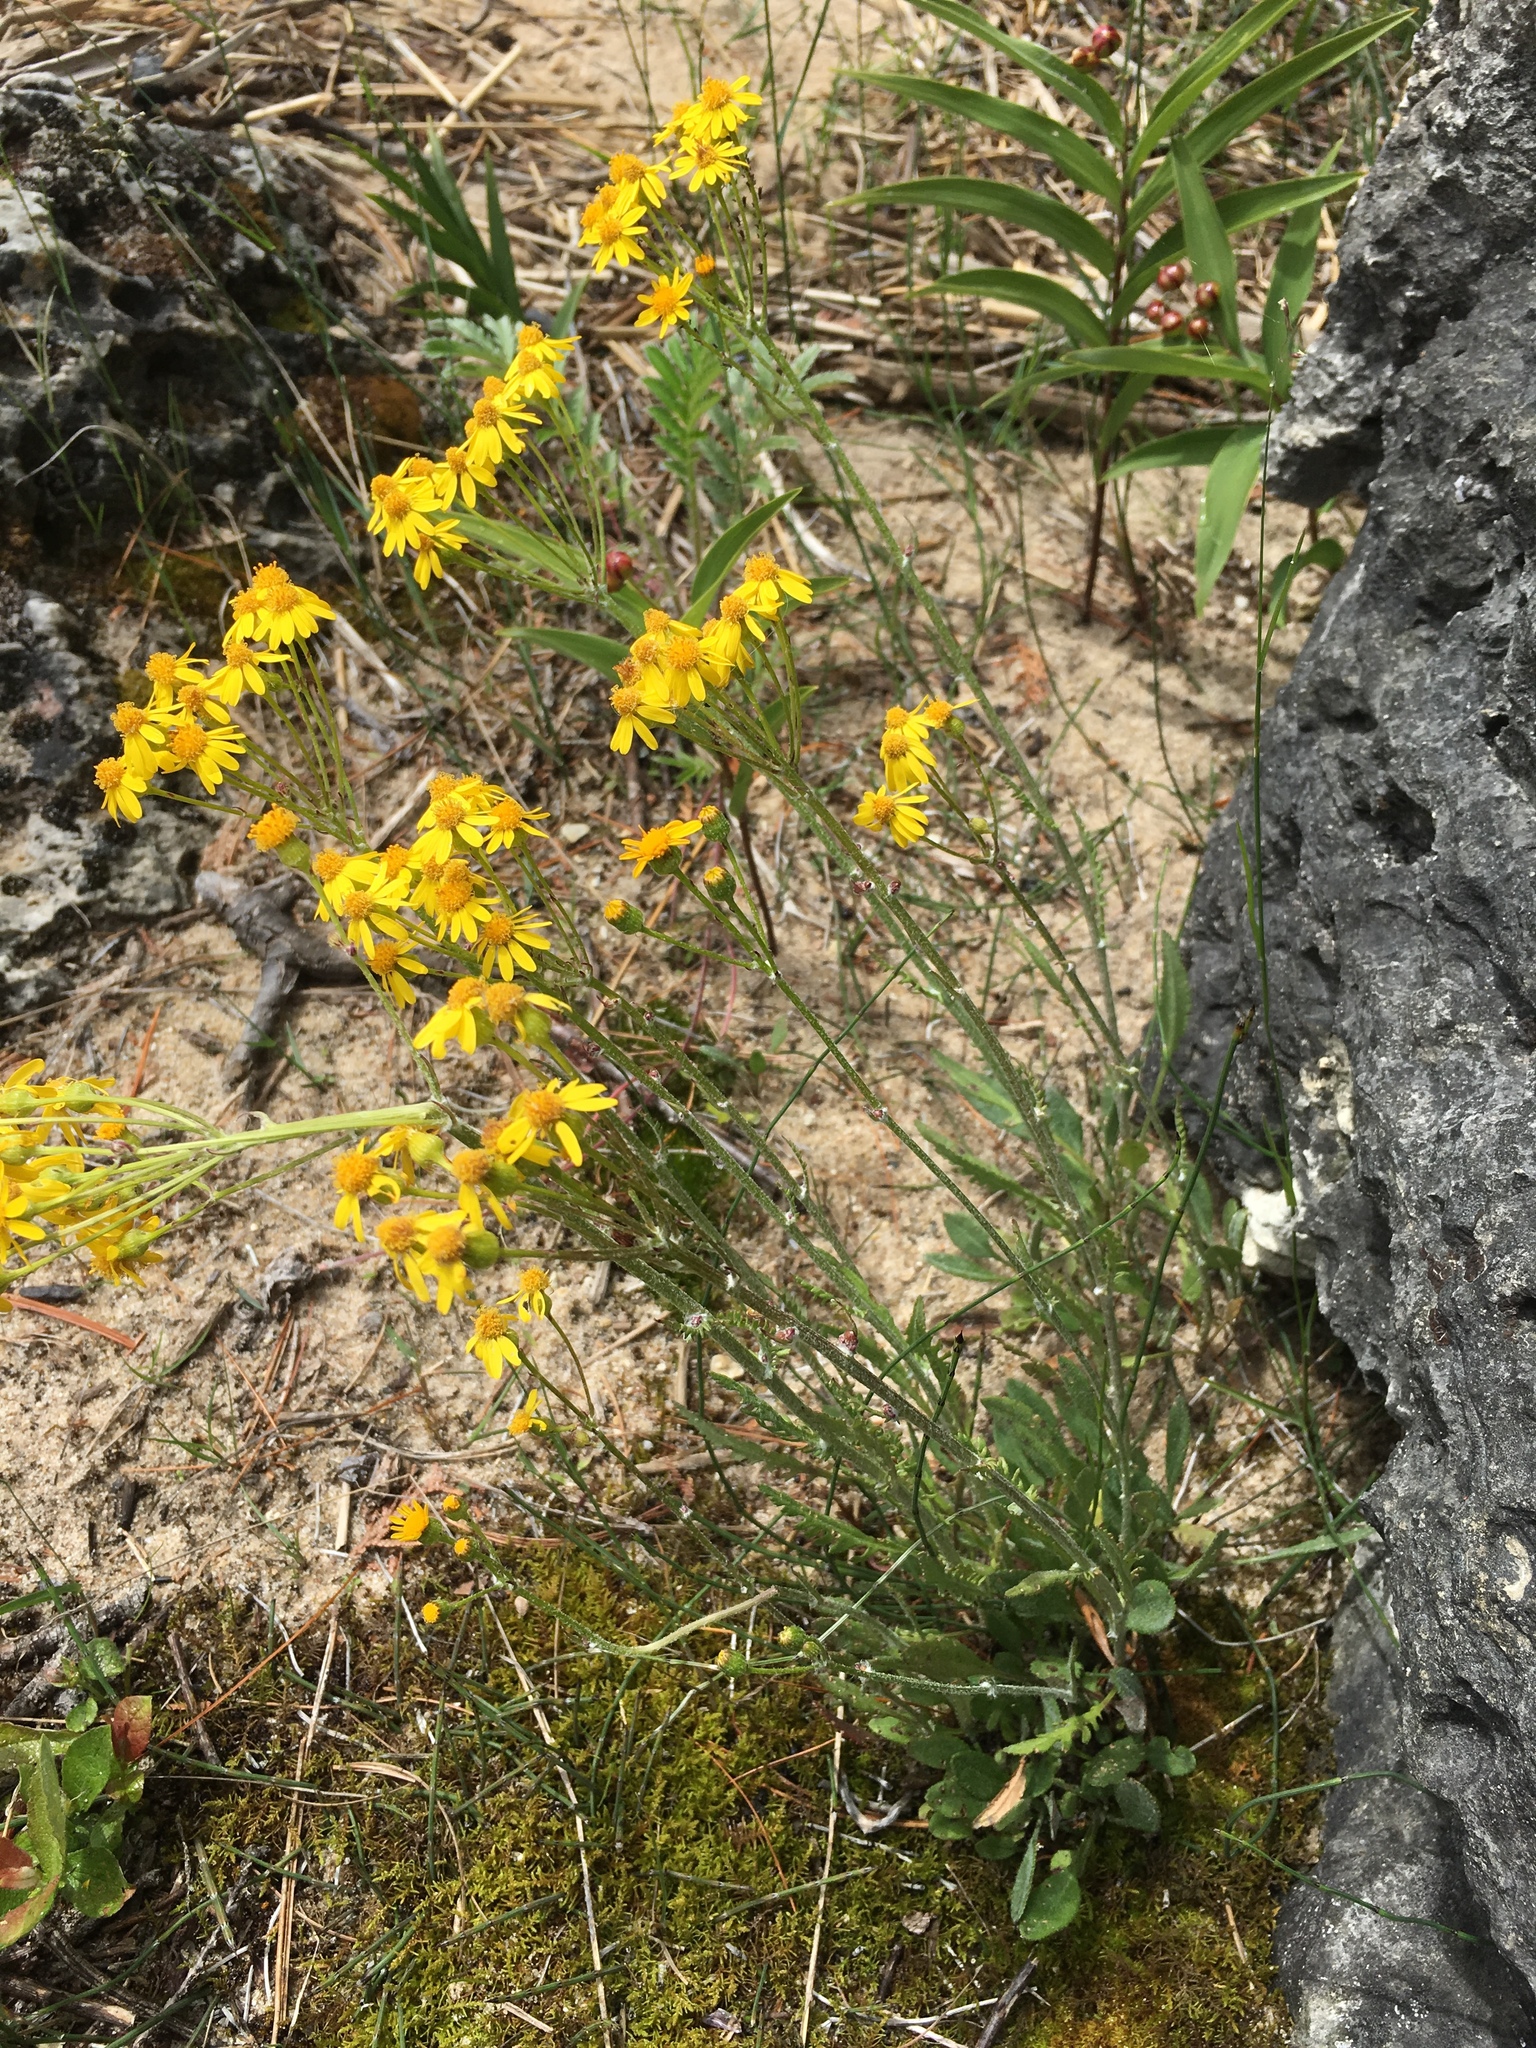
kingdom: Plantae
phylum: Tracheophyta
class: Magnoliopsida
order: Asterales
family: Asteraceae
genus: Packera
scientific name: Packera paupercula
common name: Balsam groundsel
